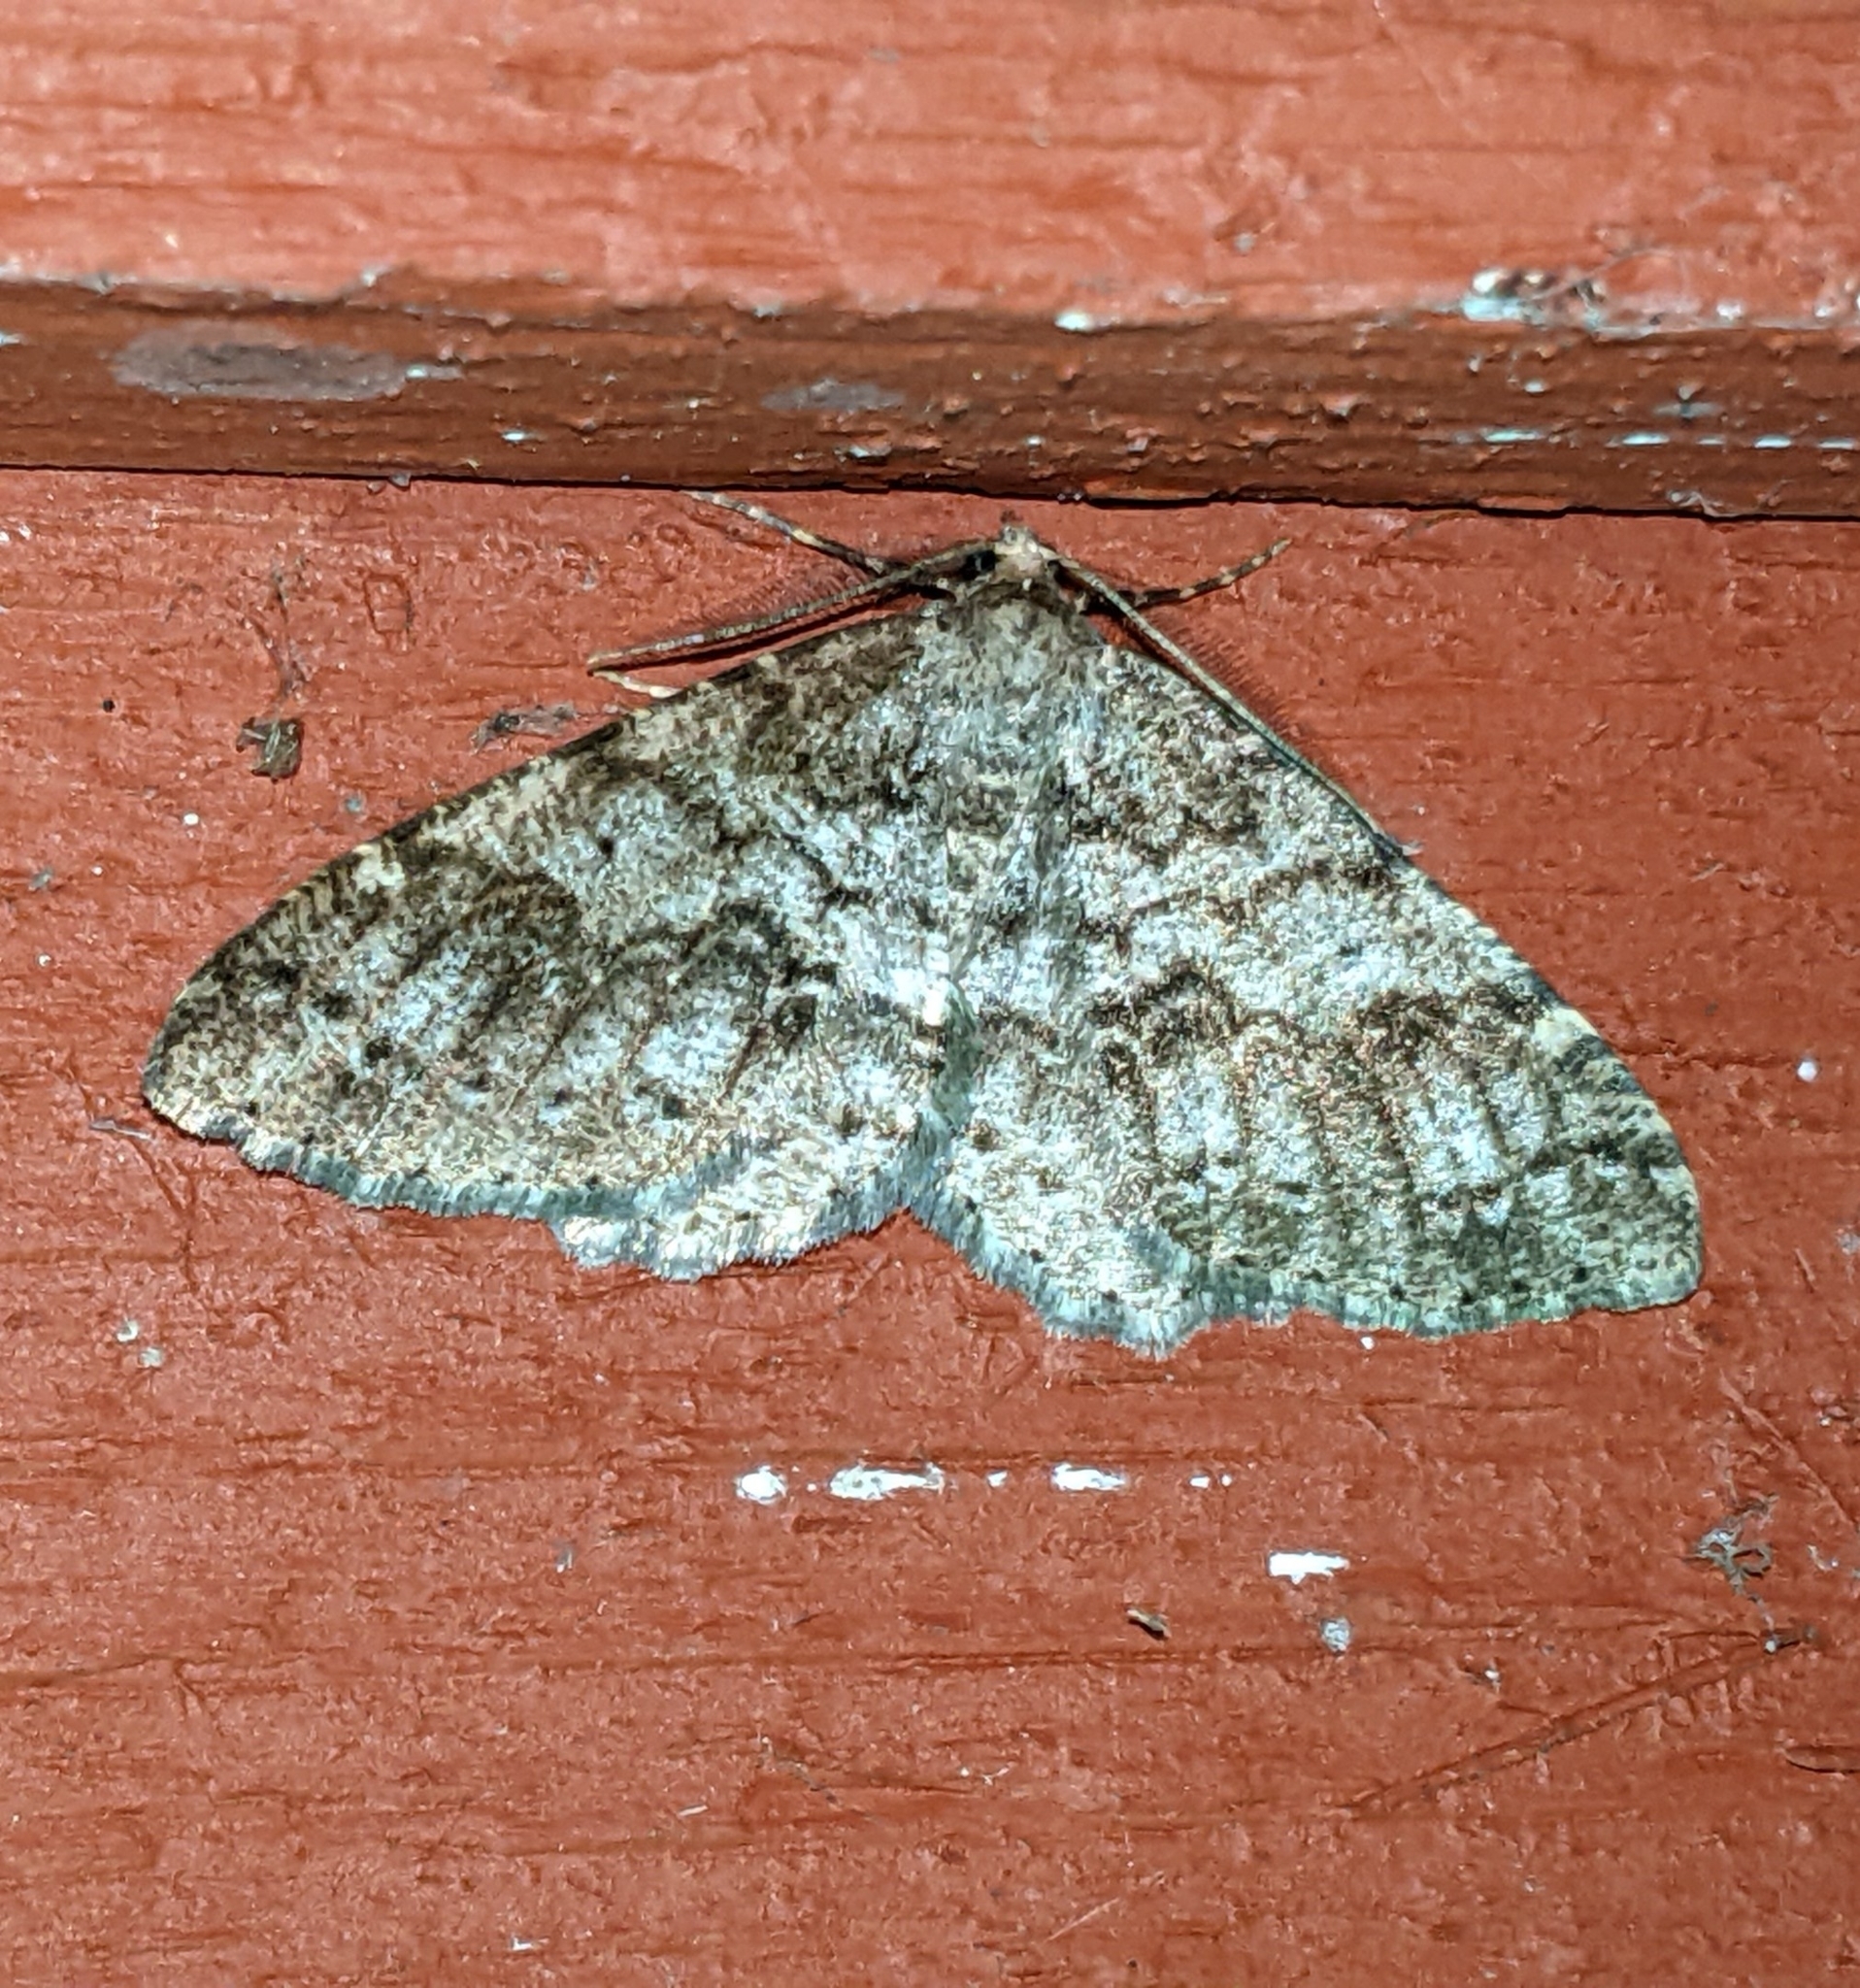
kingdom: Animalia
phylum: Arthropoda
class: Insecta
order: Lepidoptera
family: Geometridae
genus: Melanolophia
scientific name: Melanolophia imitata
